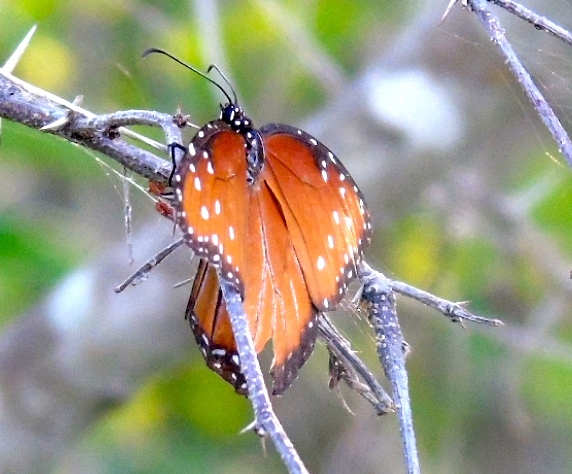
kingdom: Animalia
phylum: Arthropoda
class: Insecta
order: Lepidoptera
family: Nymphalidae
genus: Danaus
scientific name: Danaus gilippus
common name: Queen
